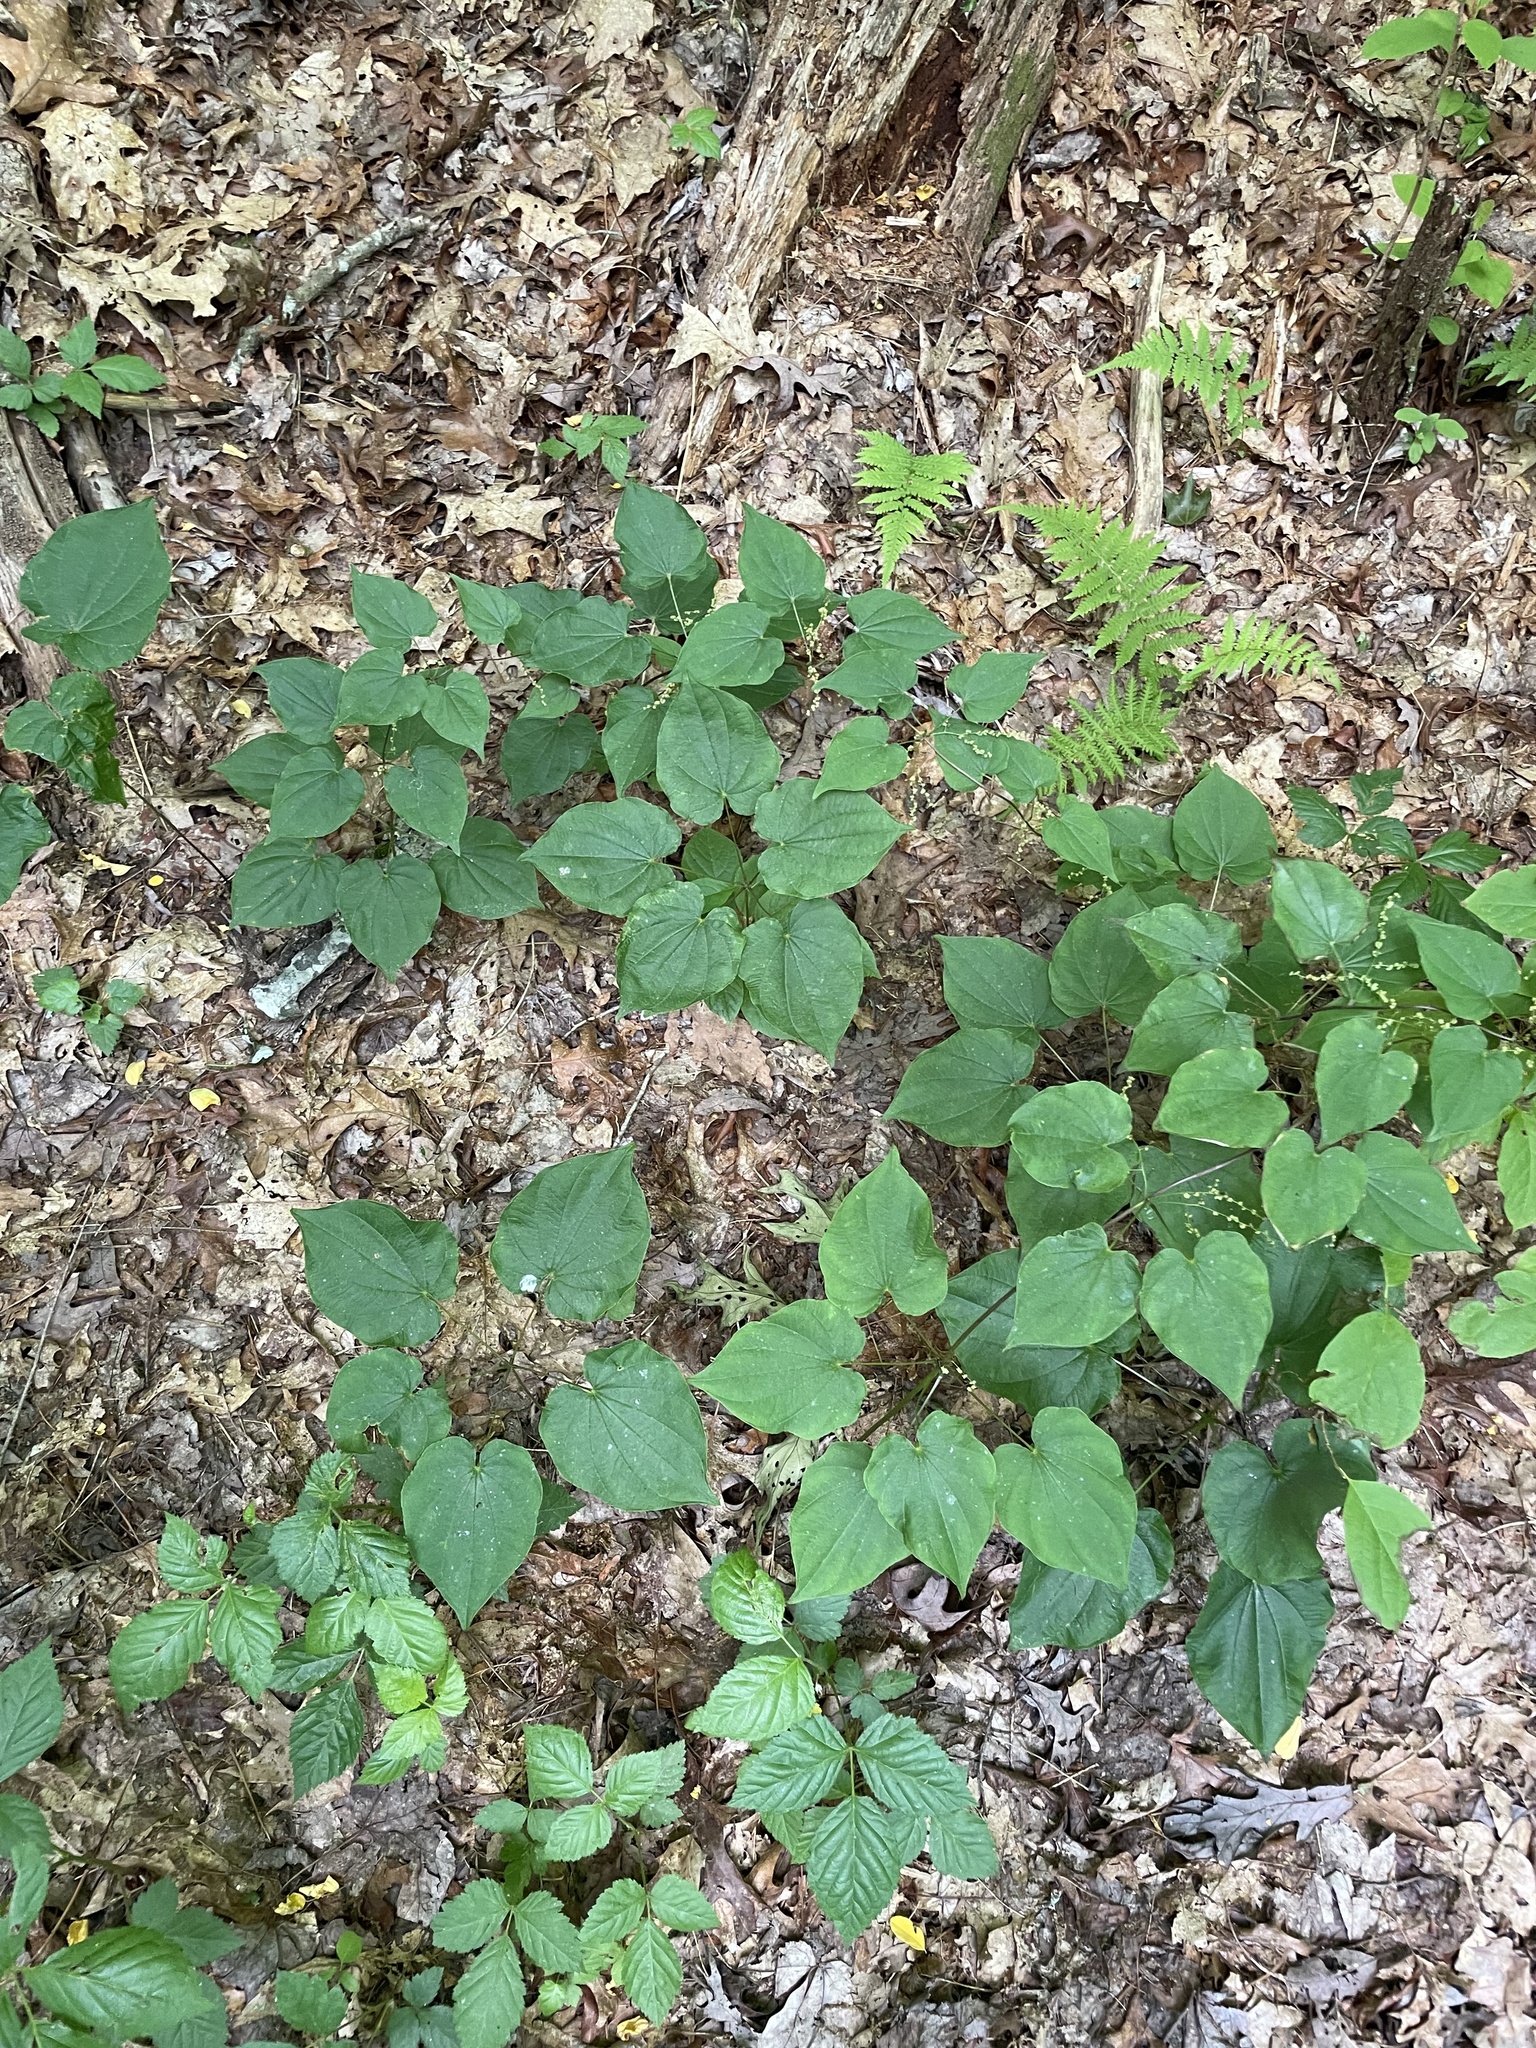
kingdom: Plantae
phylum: Tracheophyta
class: Liliopsida
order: Dioscoreales
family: Dioscoreaceae
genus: Dioscorea
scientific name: Dioscorea villosa
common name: Wild yam
